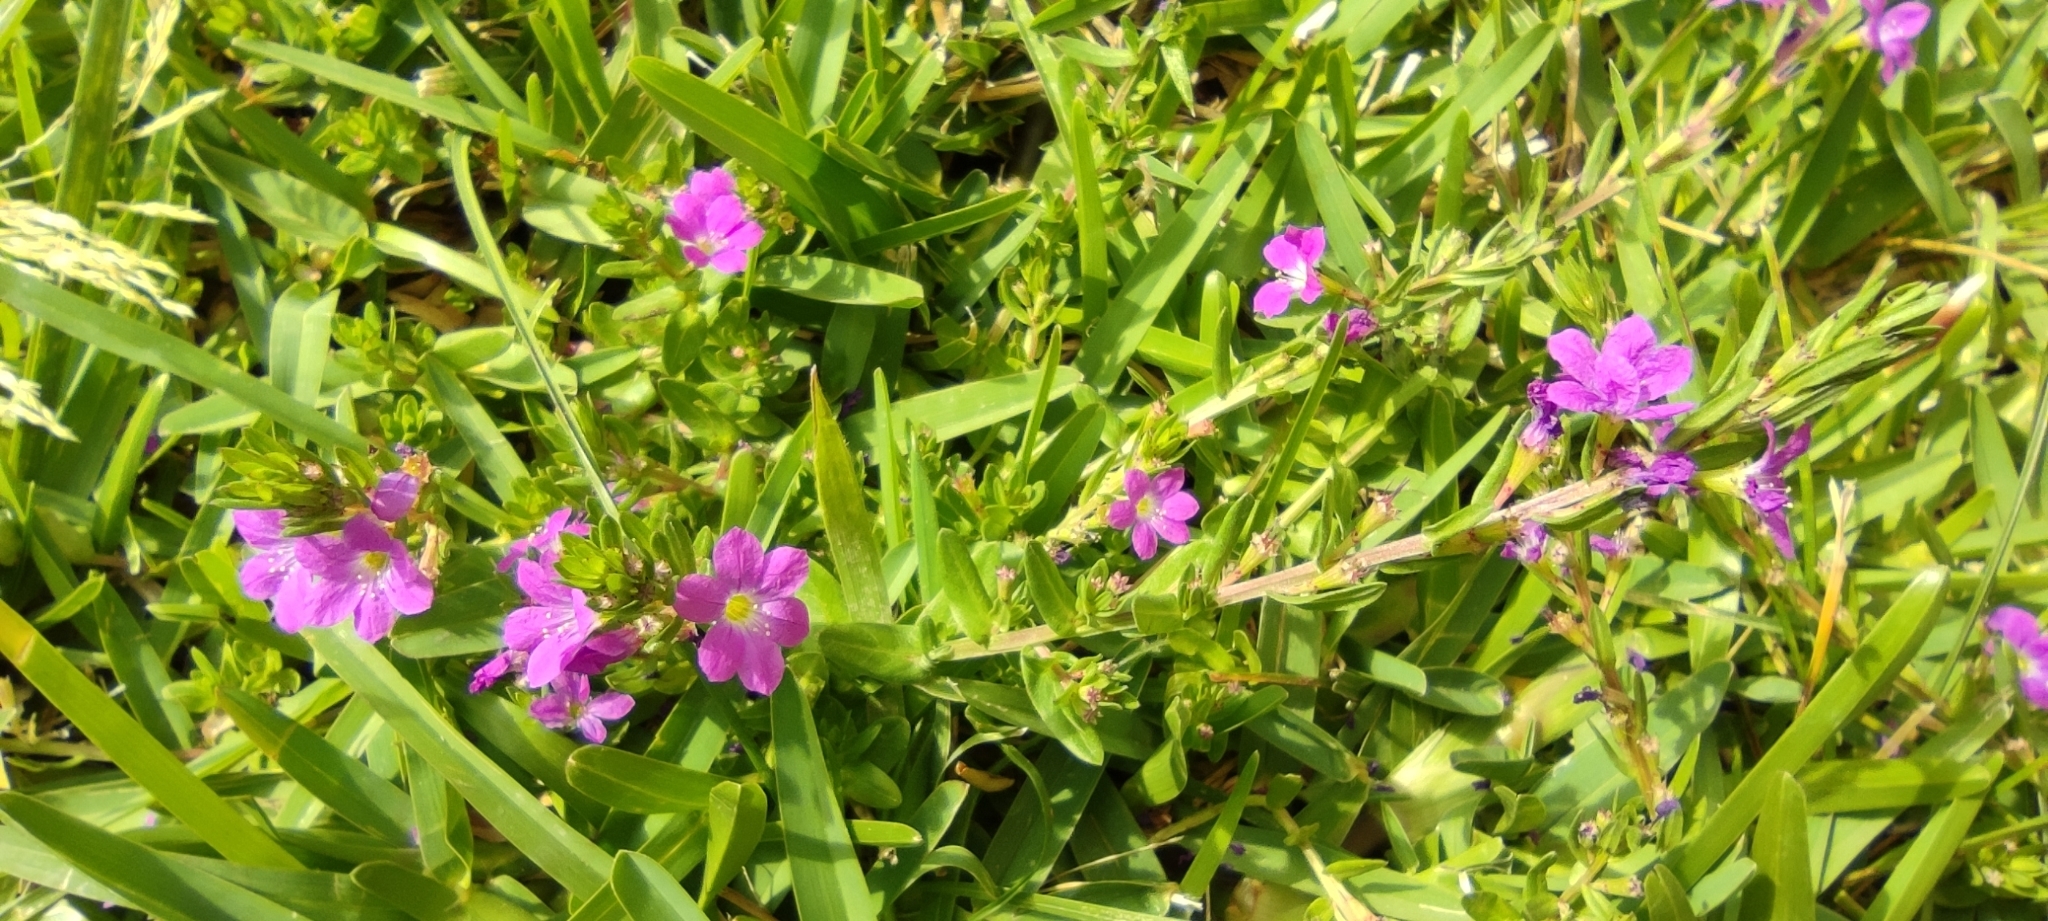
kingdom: Plantae
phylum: Tracheophyta
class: Magnoliopsida
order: Myrtales
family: Lythraceae
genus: Lythrum
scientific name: Lythrum junceum
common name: False grass-poly
